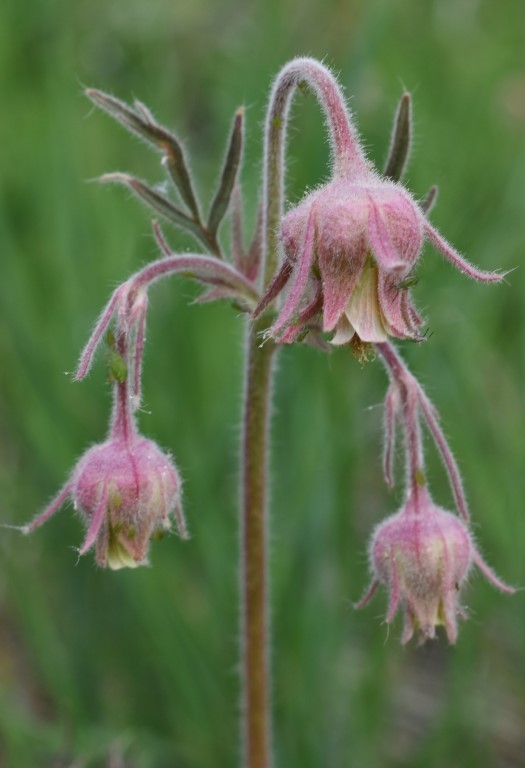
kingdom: Plantae
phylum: Tracheophyta
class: Magnoliopsida
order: Rosales
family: Rosaceae
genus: Geum
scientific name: Geum triflorum
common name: Old man's whiskers
